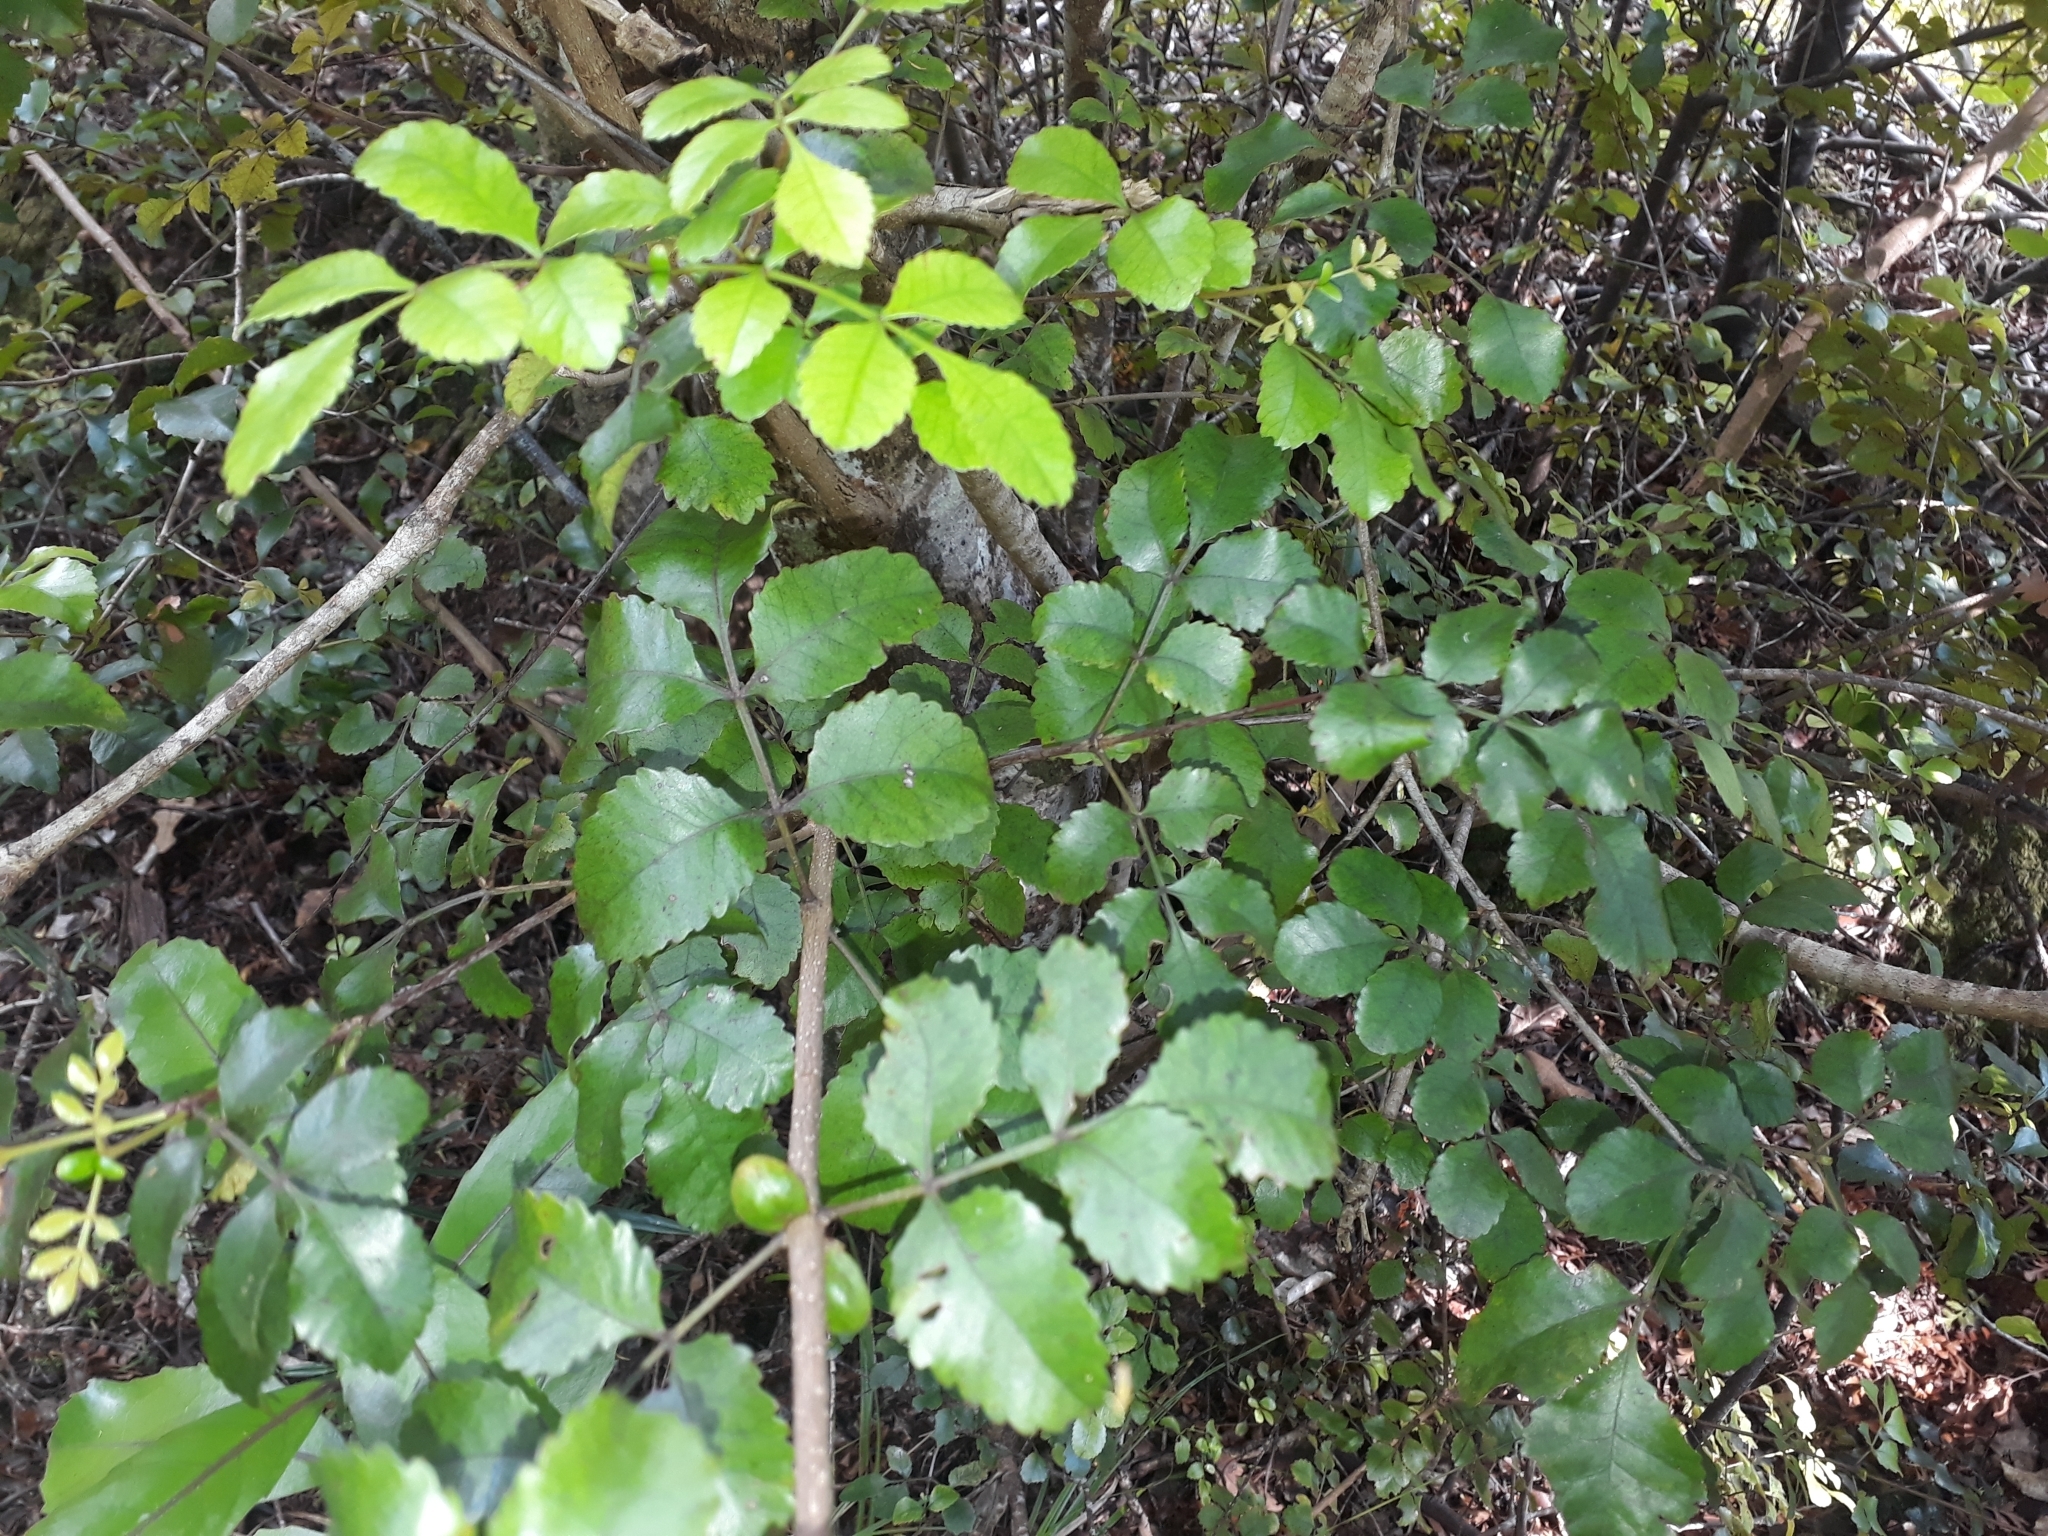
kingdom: Plantae
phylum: Tracheophyta
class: Magnoliopsida
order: Oxalidales
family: Cunoniaceae
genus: Pterophylla
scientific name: Pterophylla sylvicola
